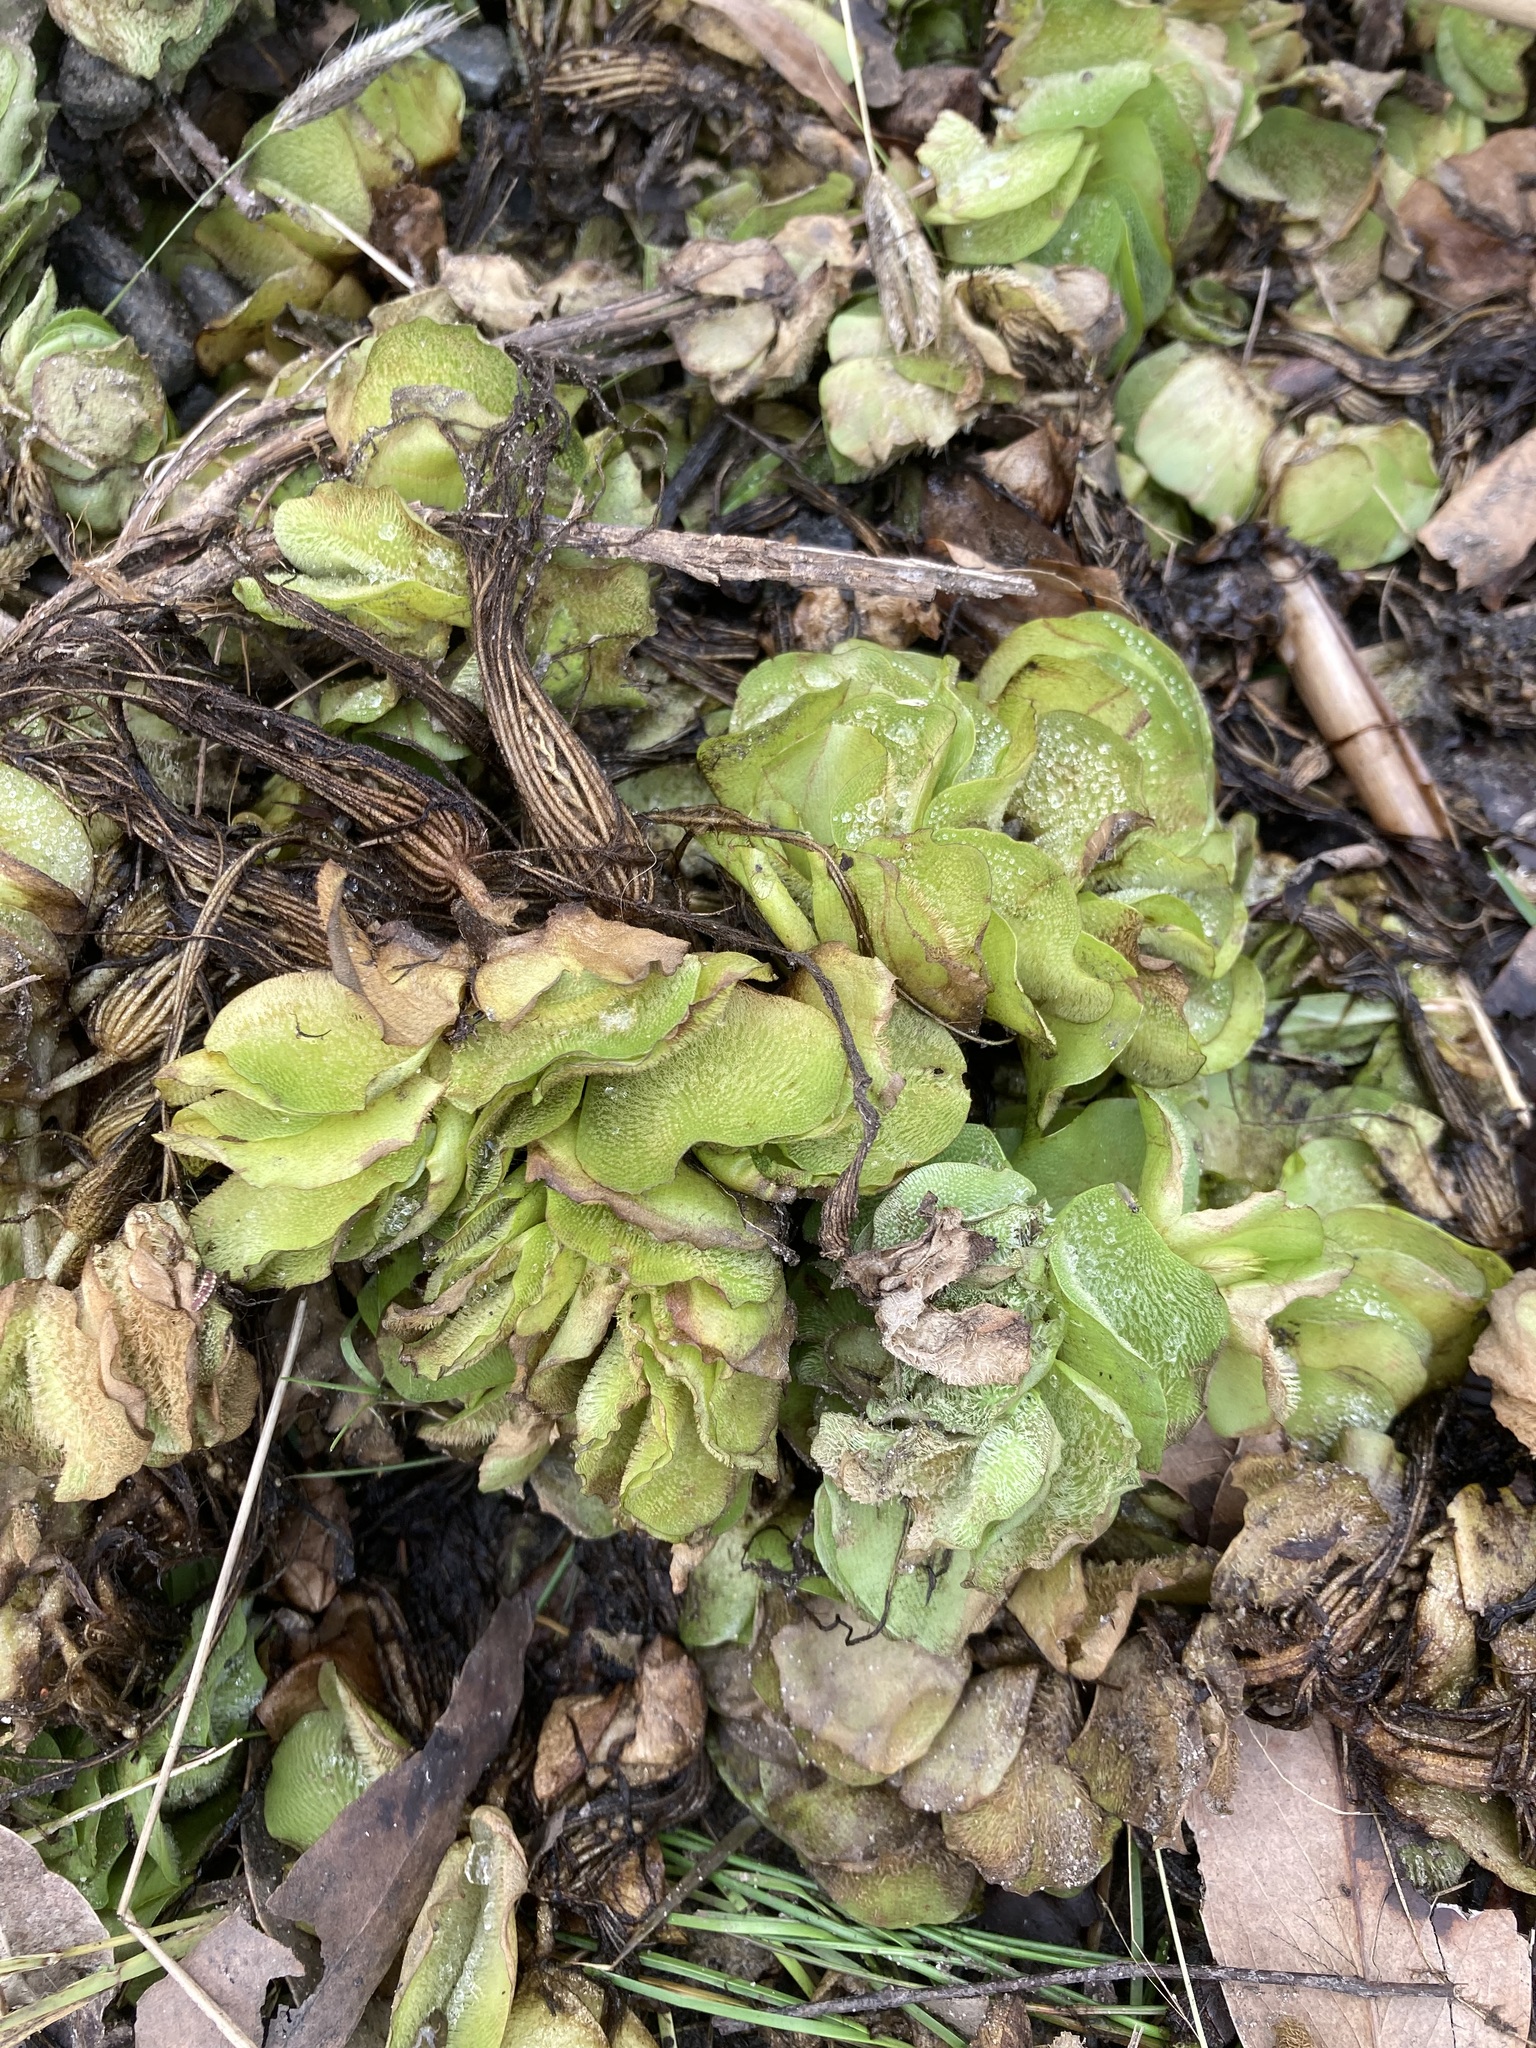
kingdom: Plantae
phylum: Tracheophyta
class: Polypodiopsida
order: Salviniales
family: Salviniaceae
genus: Salvinia
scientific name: Salvinia molesta
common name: Kariba weed
